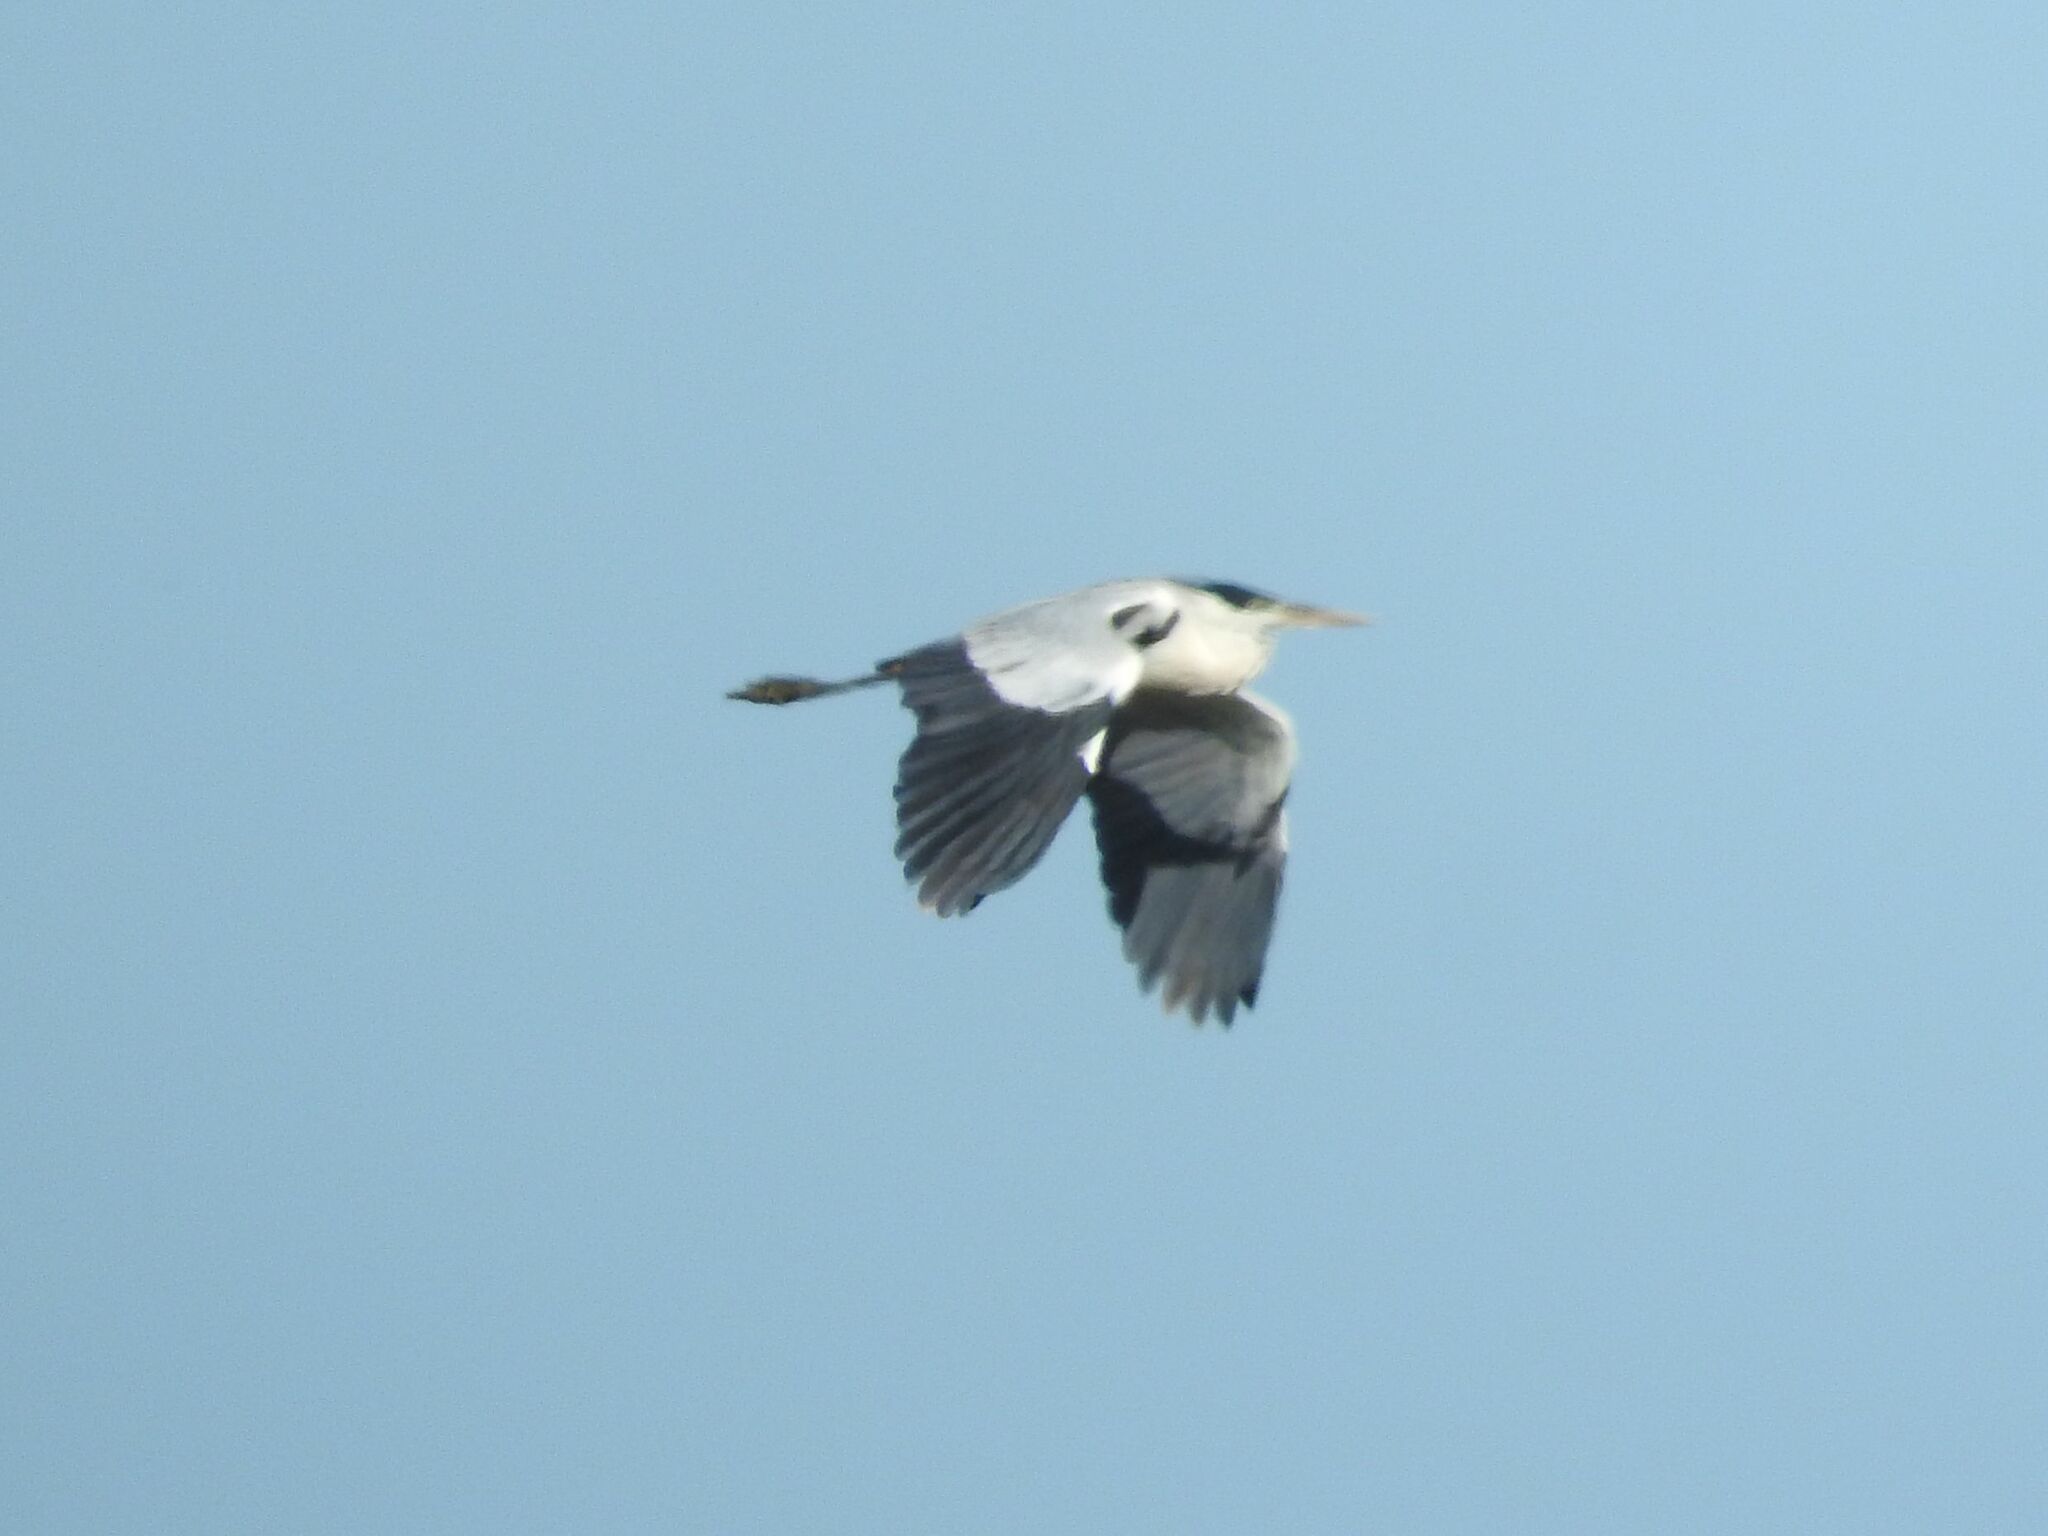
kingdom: Animalia
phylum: Chordata
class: Aves
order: Pelecaniformes
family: Ardeidae
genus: Ardea
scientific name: Ardea cocoi
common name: Cocoi heron
